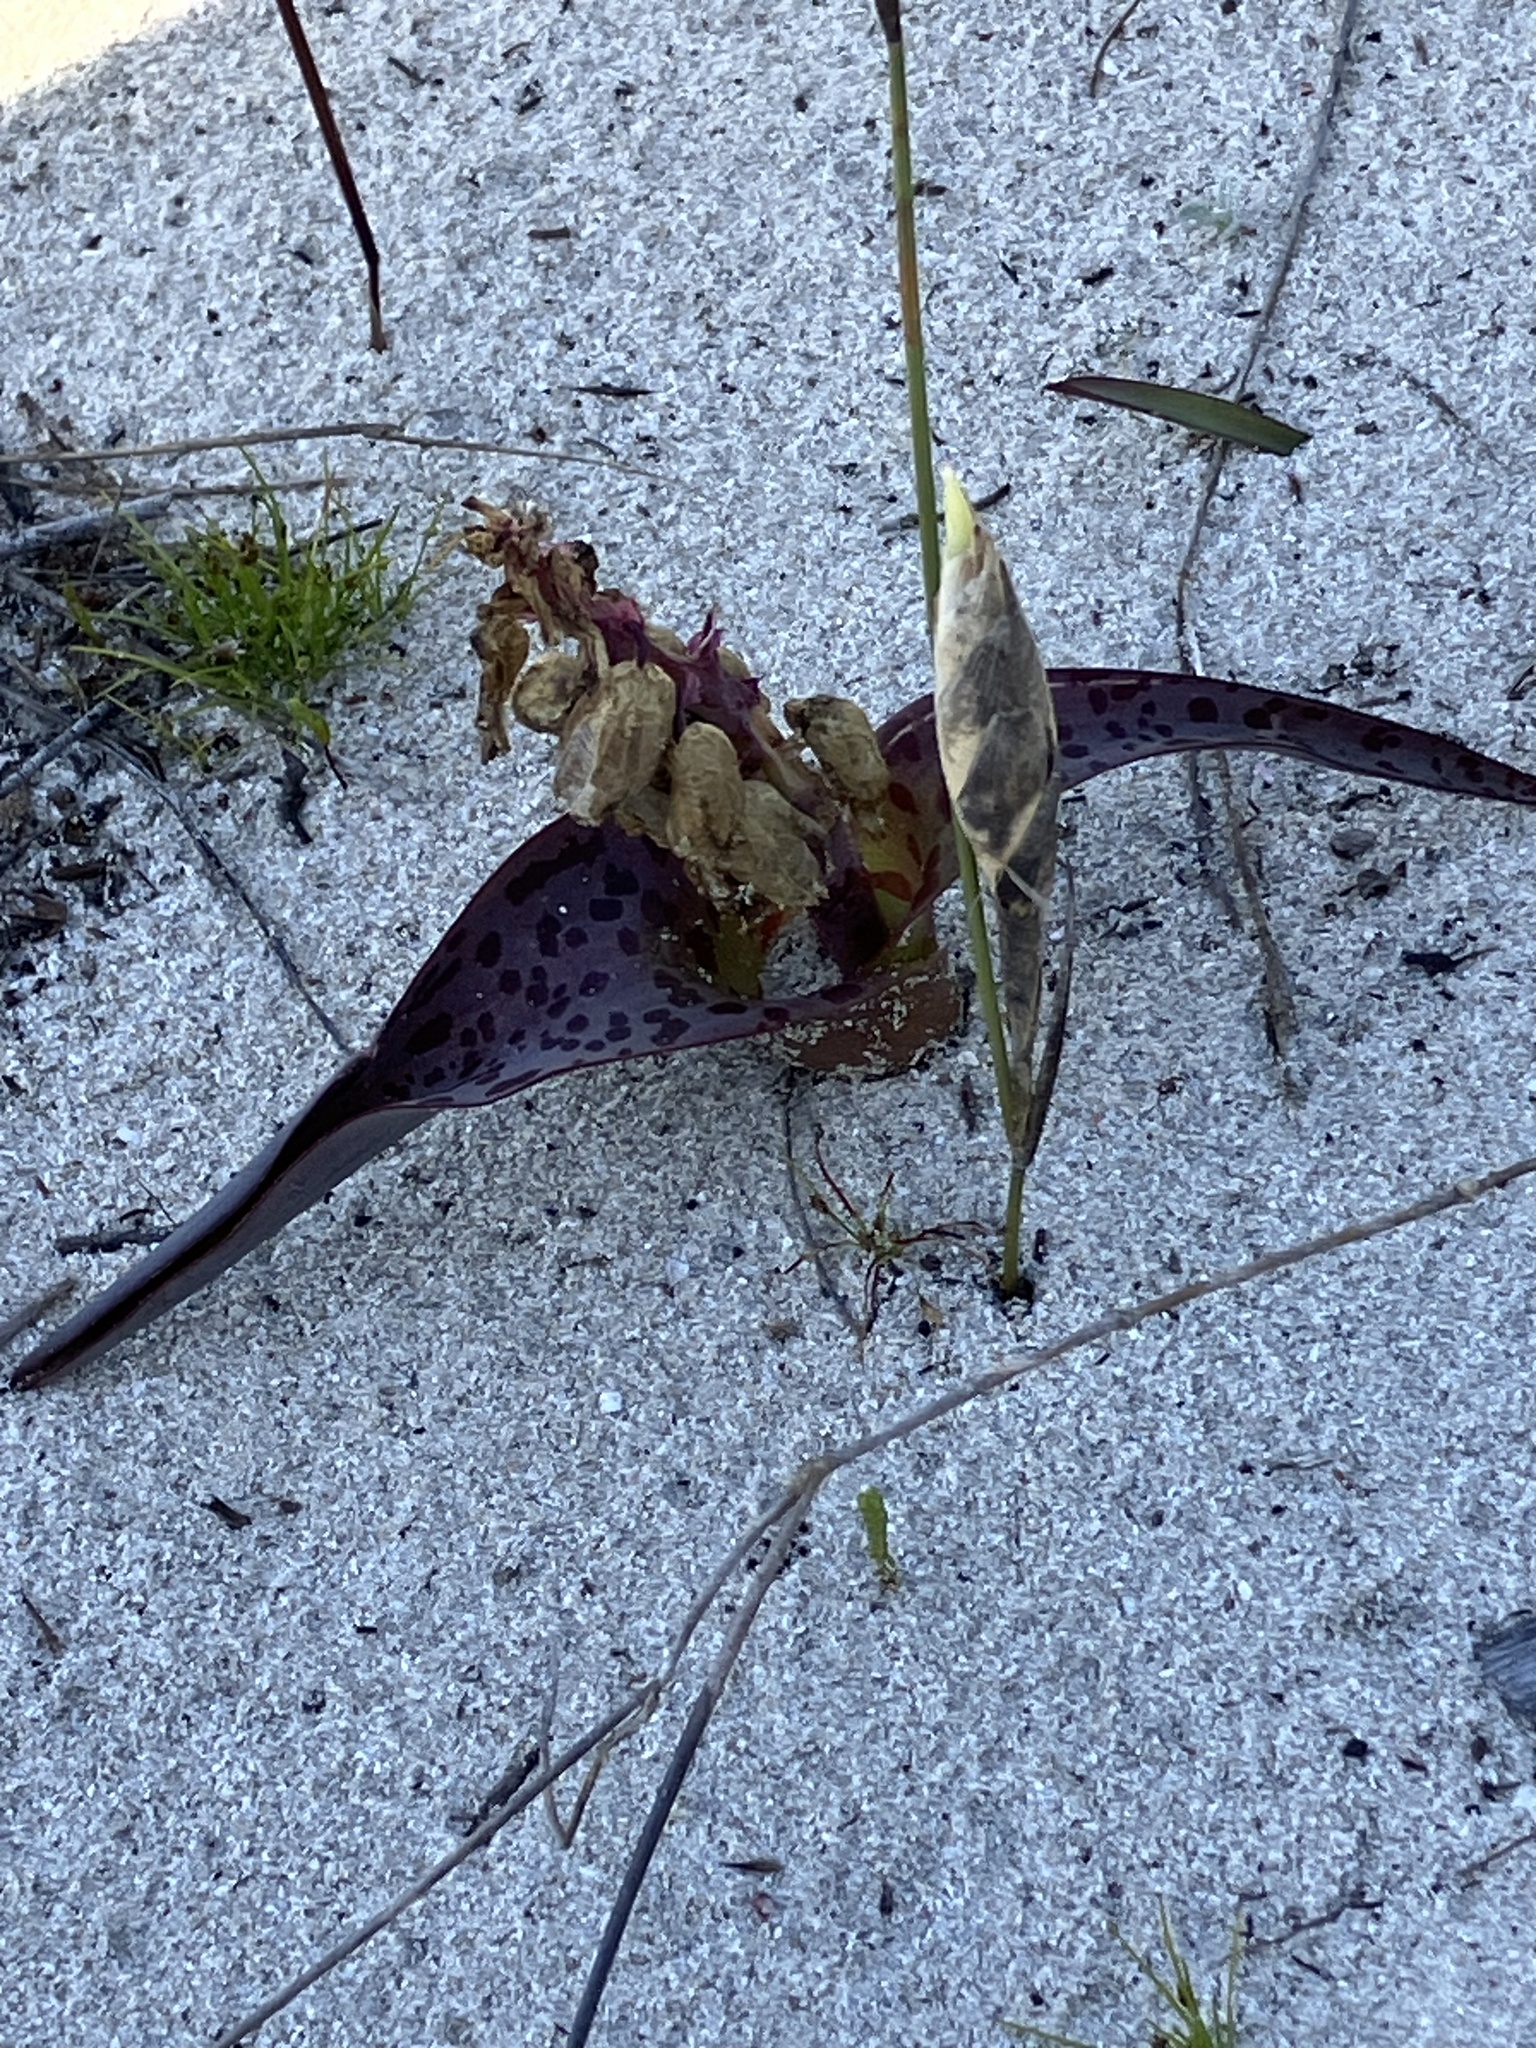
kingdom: Plantae
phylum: Tracheophyta
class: Liliopsida
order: Asparagales
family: Asparagaceae
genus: Lachenalia
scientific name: Lachenalia punctata
